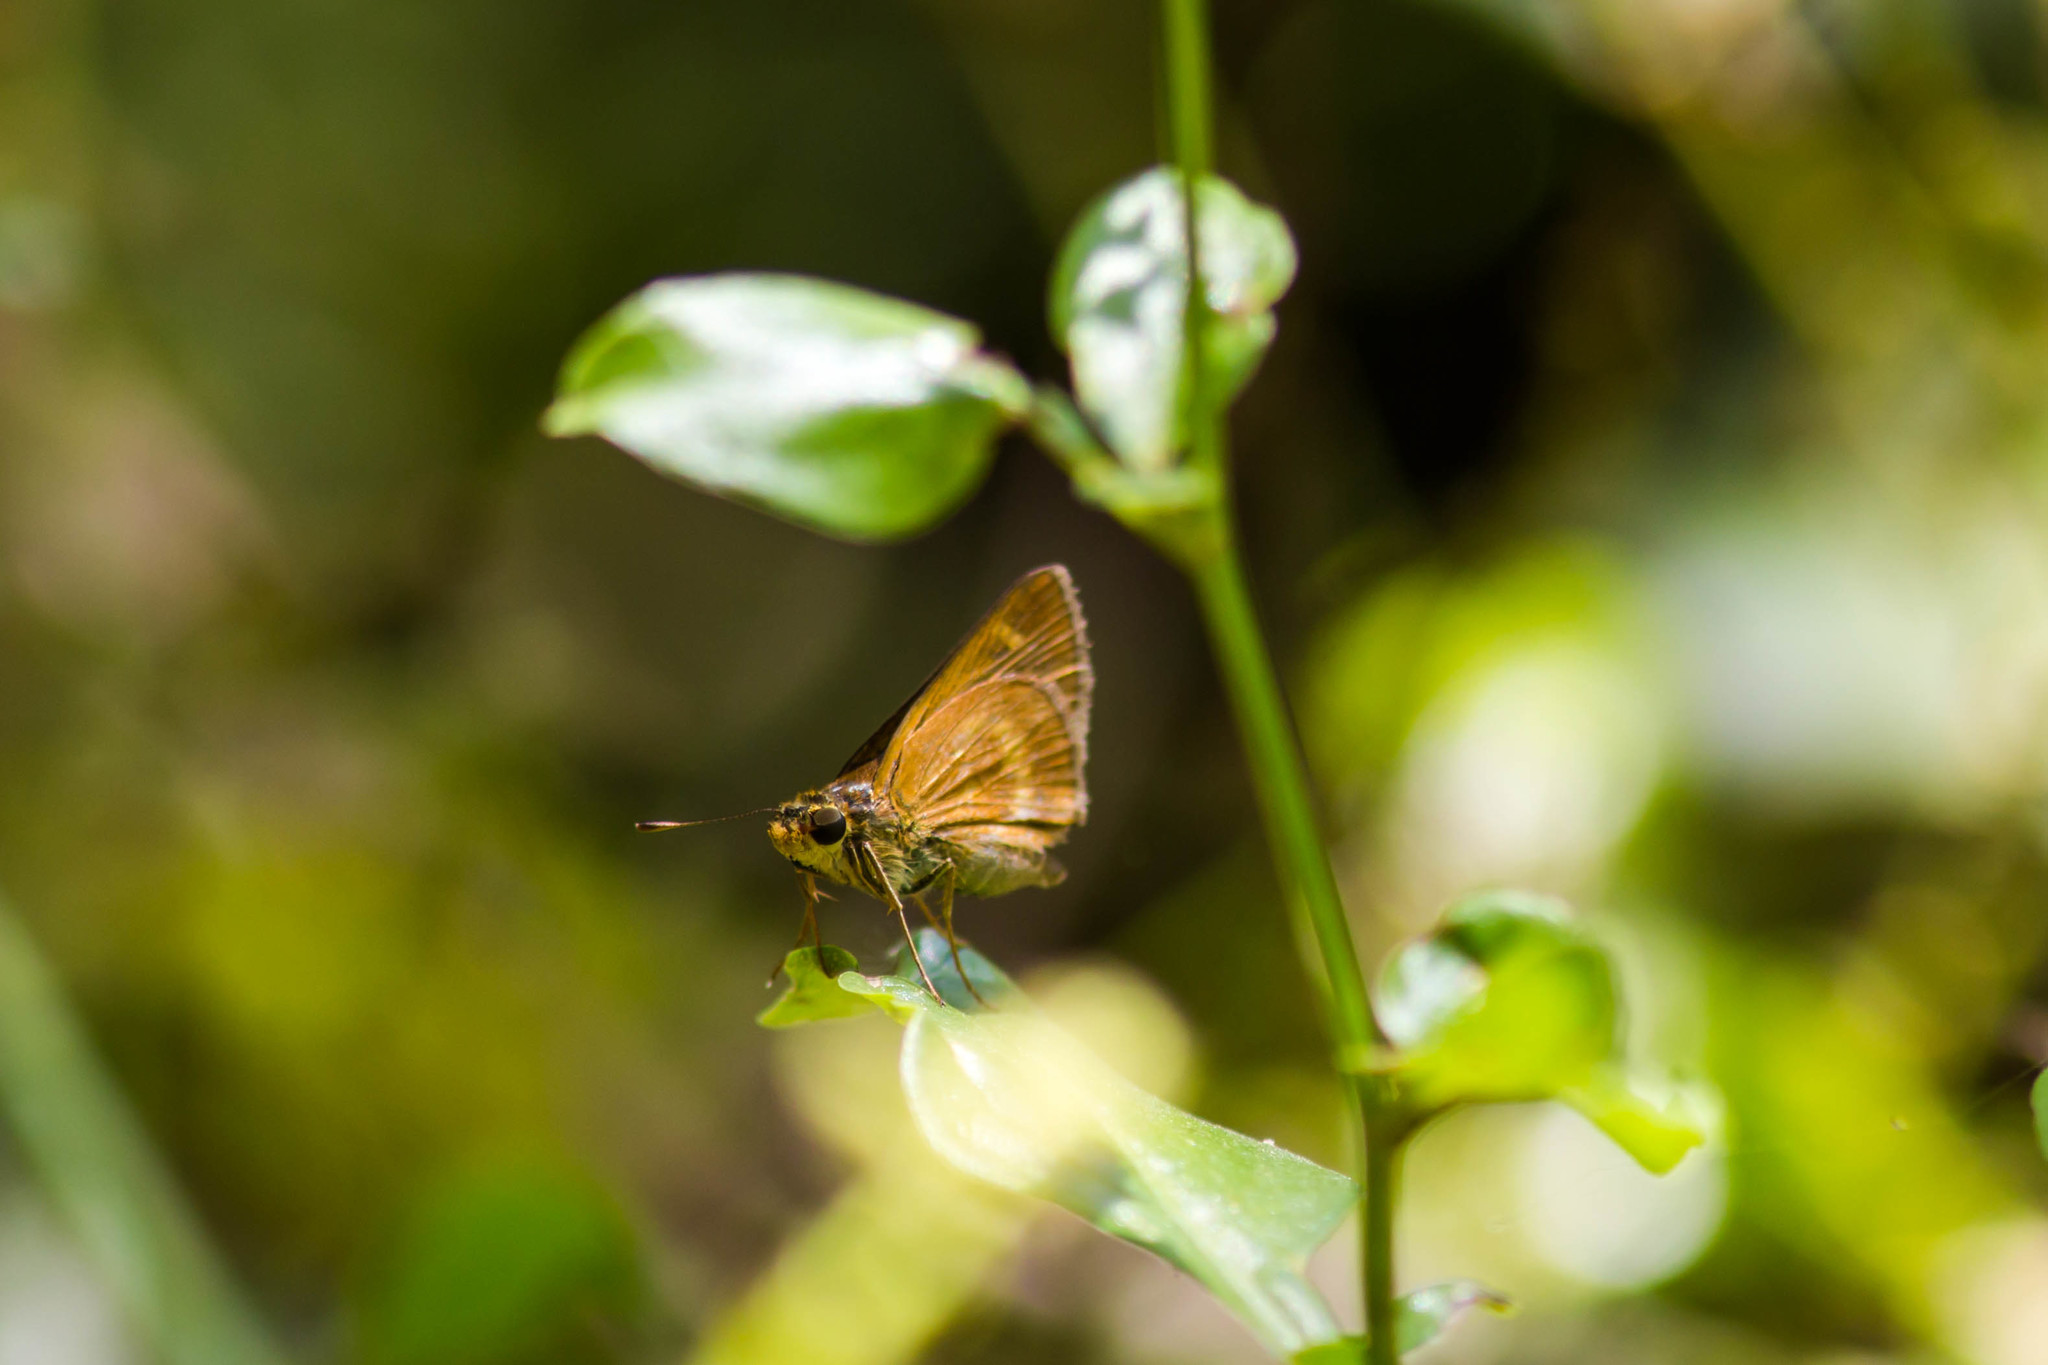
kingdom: Animalia
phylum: Arthropoda
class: Insecta
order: Lepidoptera
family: Hesperiidae
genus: Polites
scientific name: Polites otho
